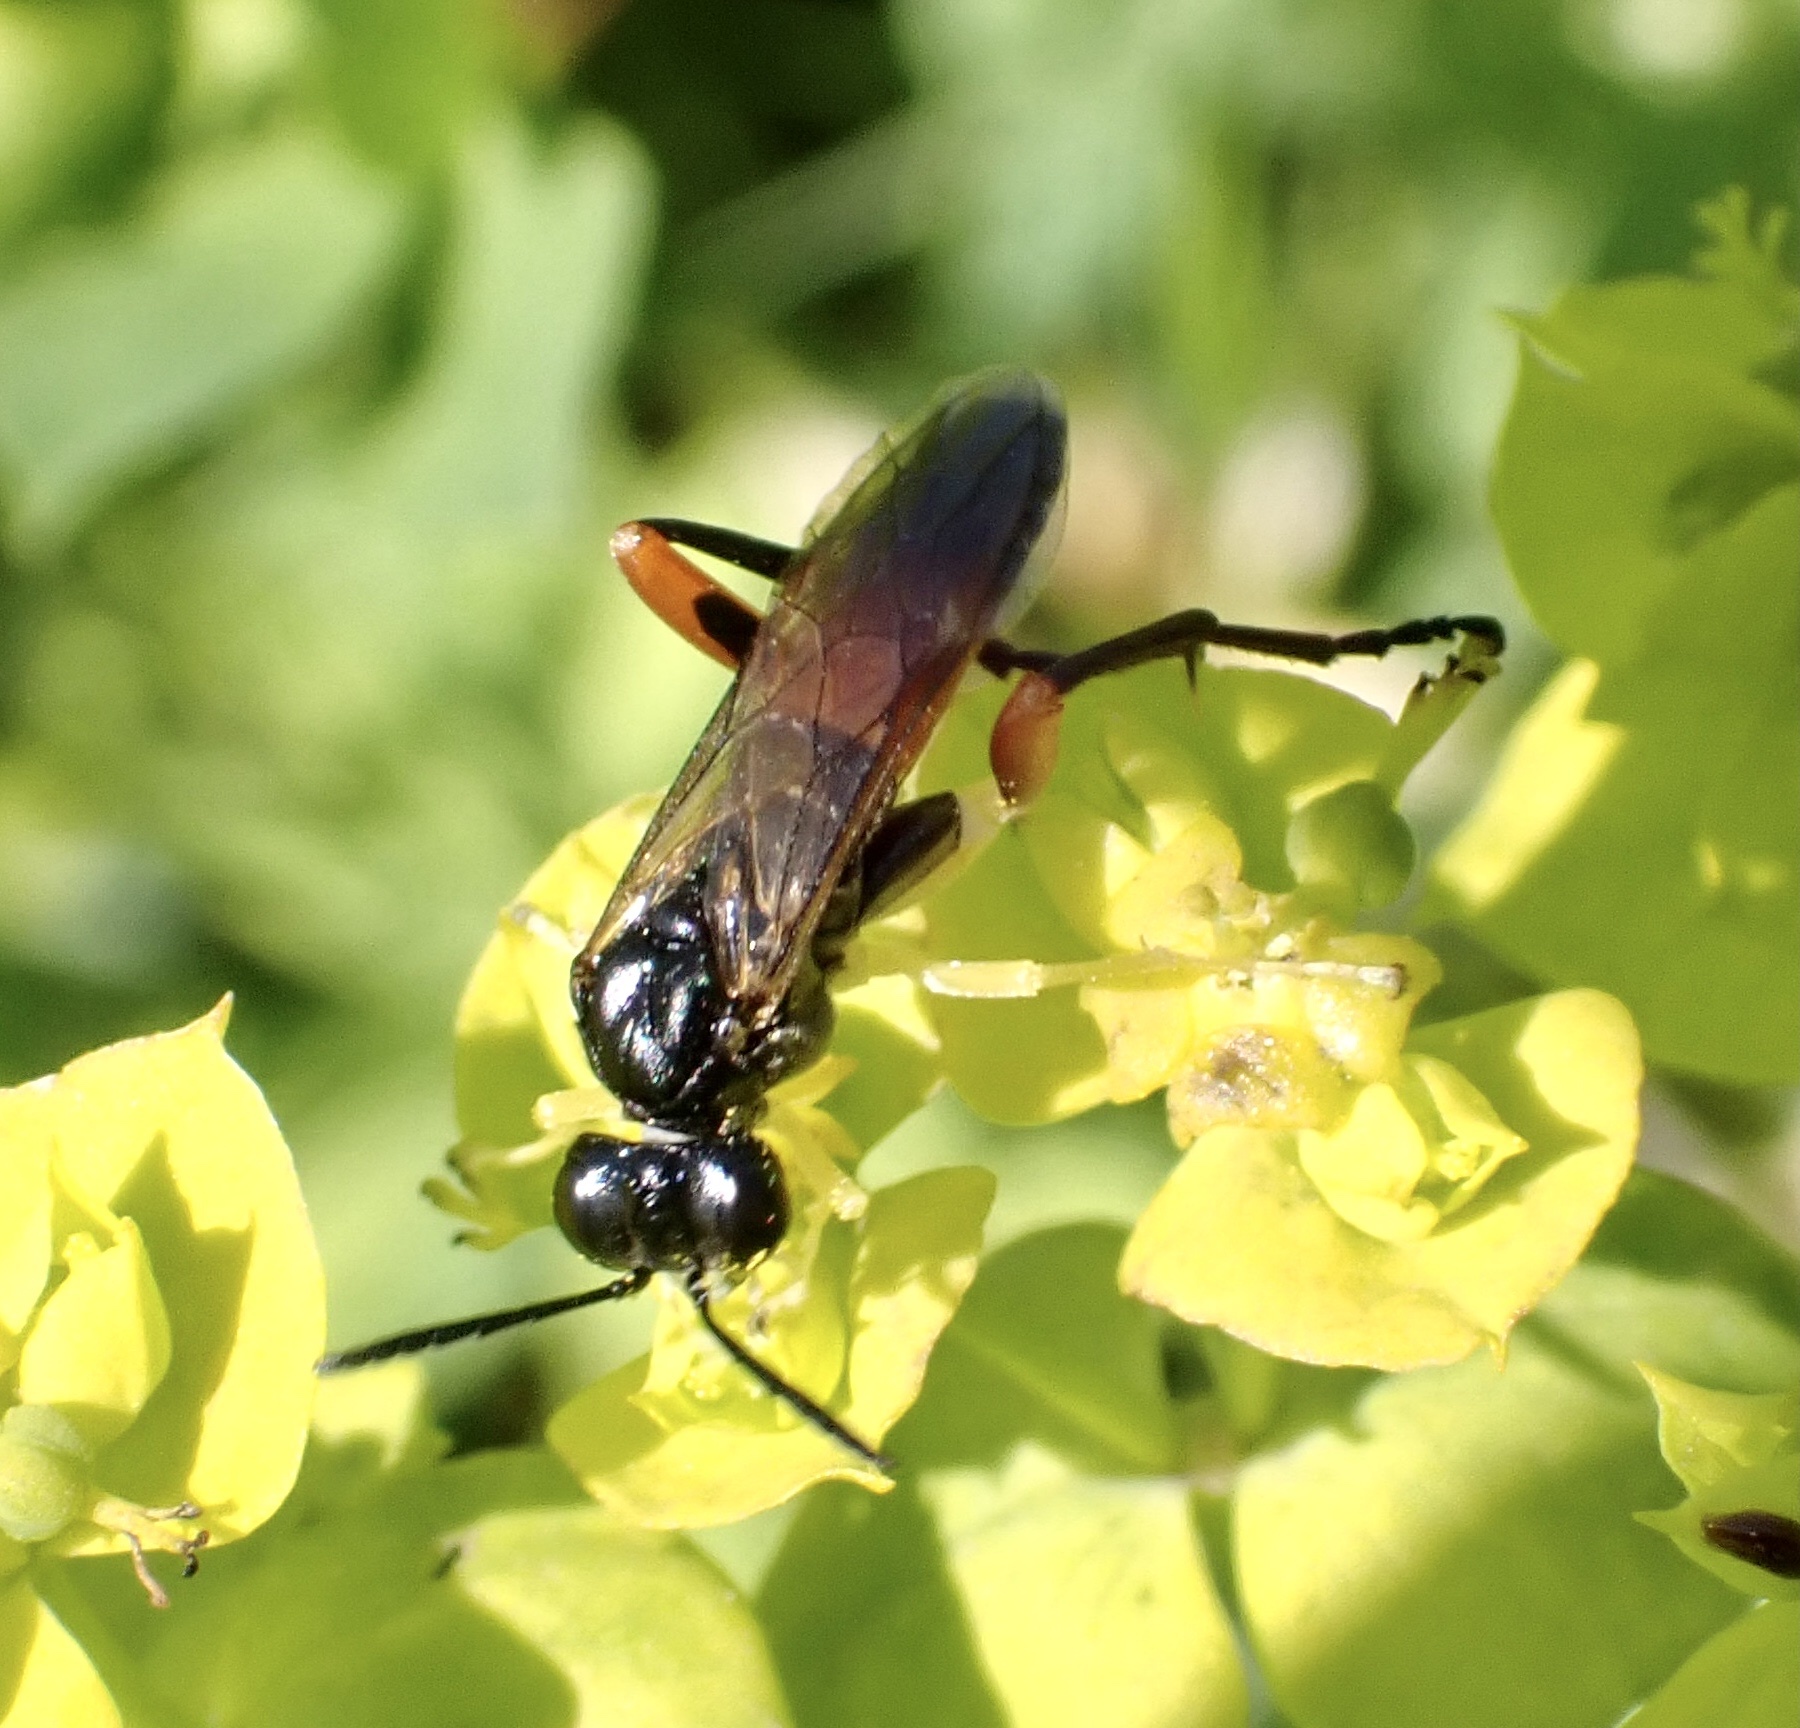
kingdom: Animalia
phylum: Arthropoda
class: Insecta
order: Hymenoptera
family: Tenthredinidae
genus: Macrophya
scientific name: Macrophya rufipes
